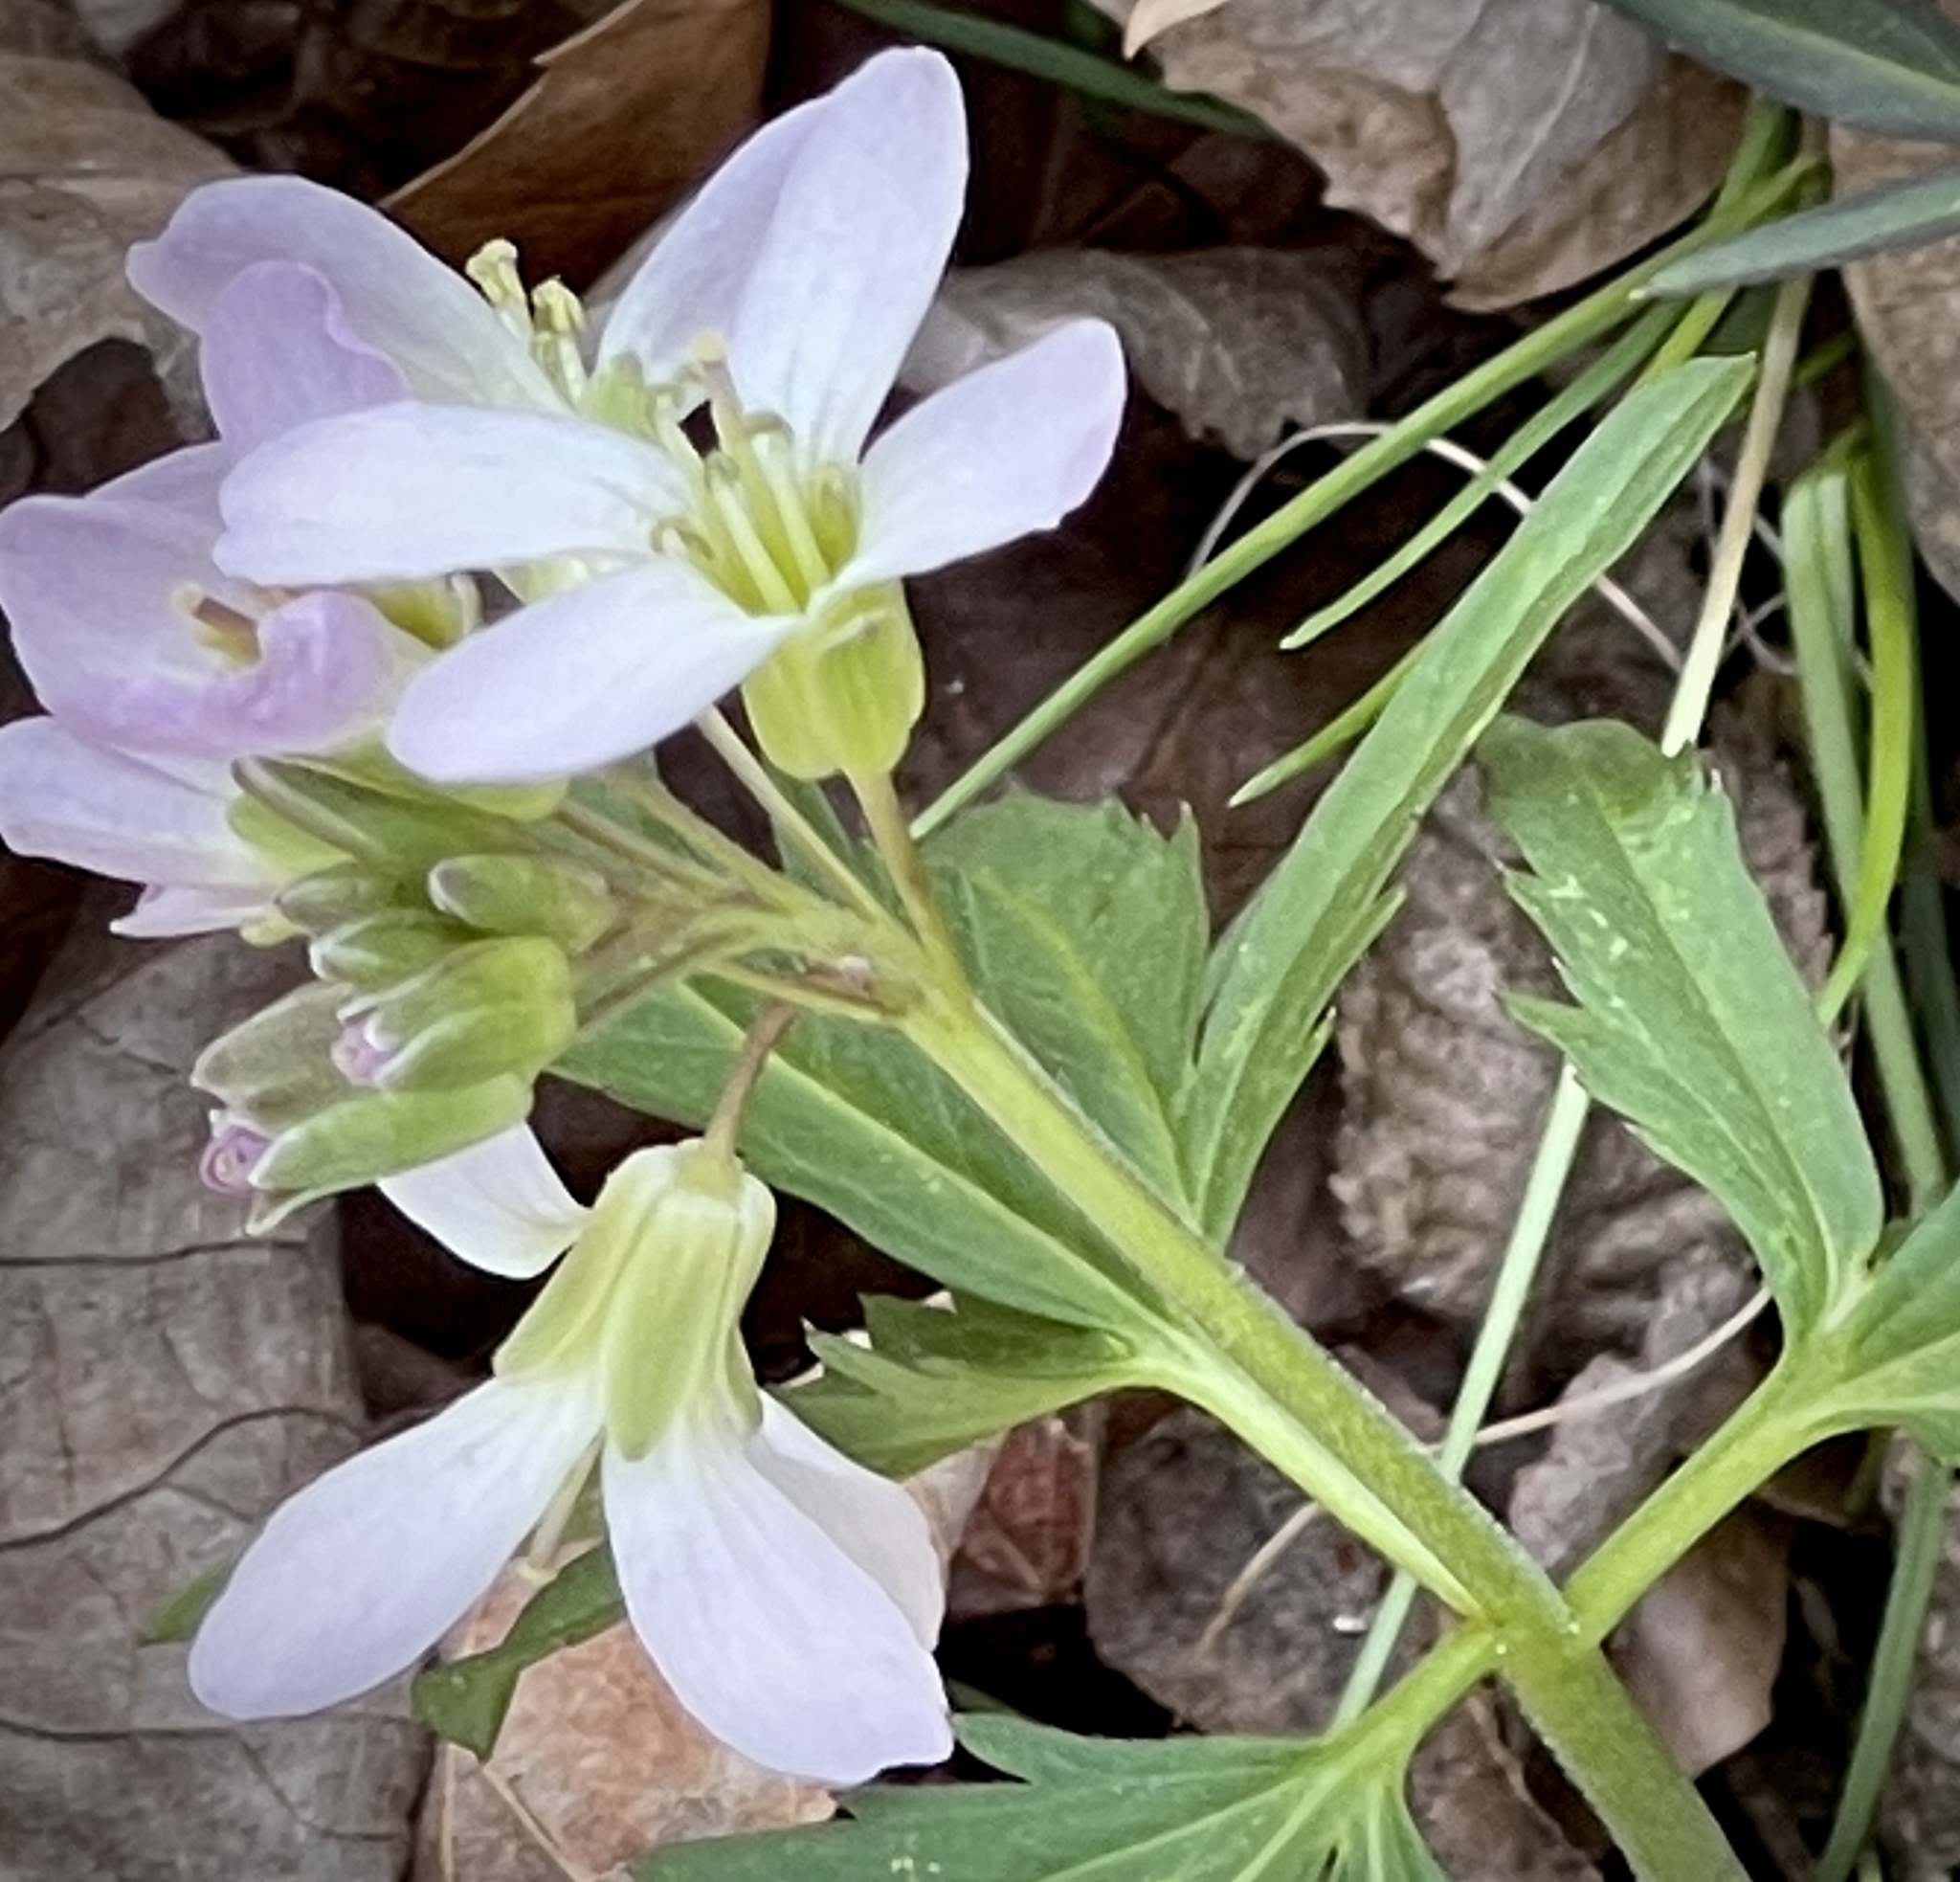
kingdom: Plantae
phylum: Tracheophyta
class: Magnoliopsida
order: Brassicales
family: Brassicaceae
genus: Cardamine
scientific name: Cardamine concatenata
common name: Cut-leaf toothcup
